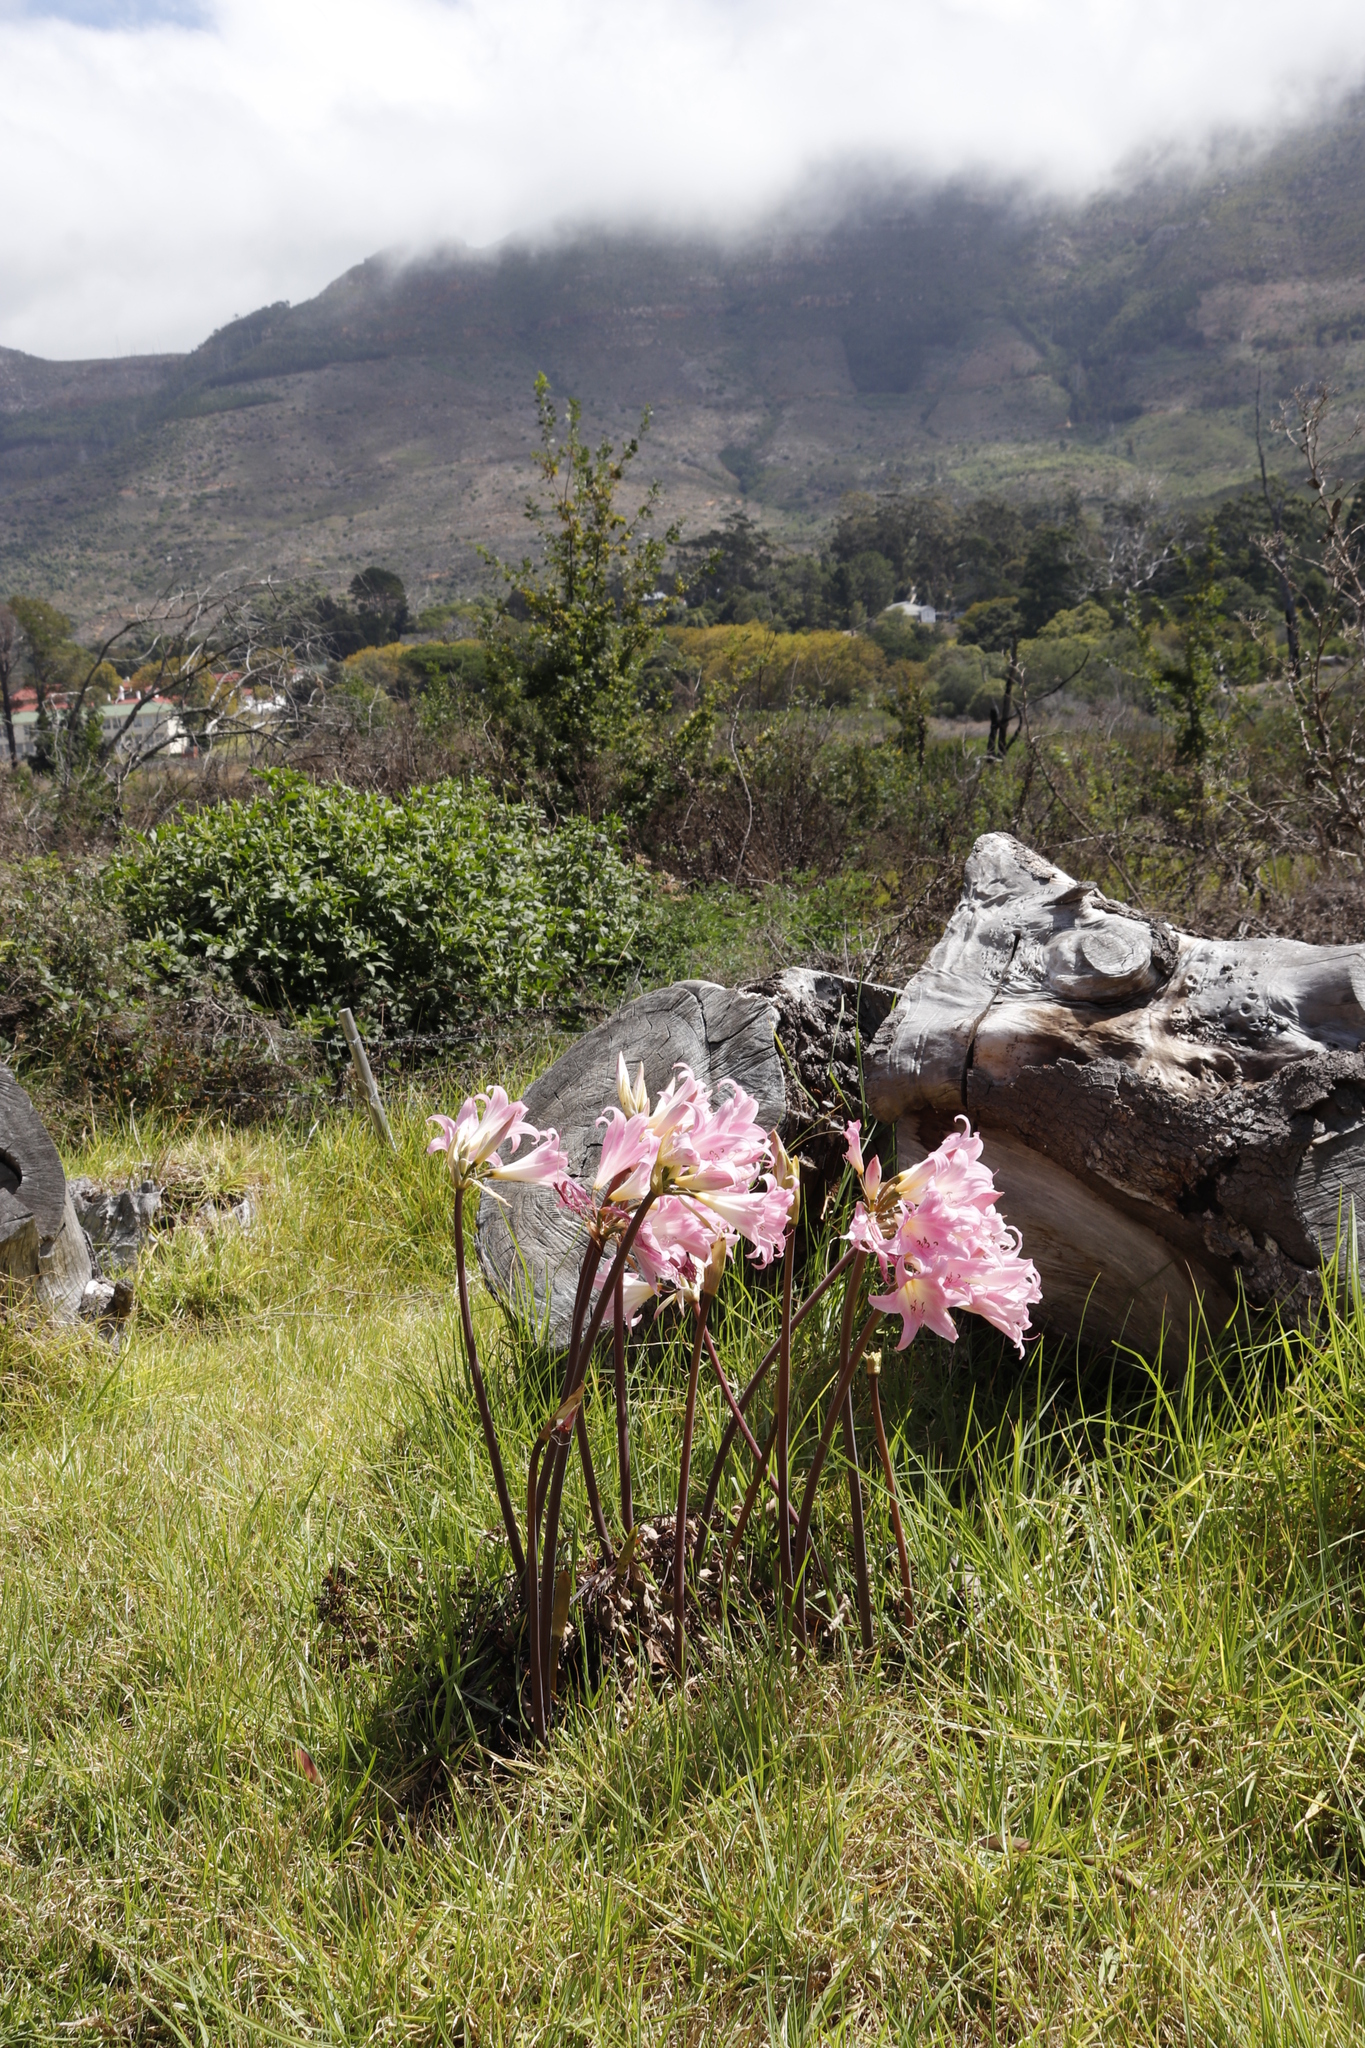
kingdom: Plantae
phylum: Tracheophyta
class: Liliopsida
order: Asparagales
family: Amaryllidaceae
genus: Amaryllis
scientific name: Amaryllis belladonna
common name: Jersey lily
